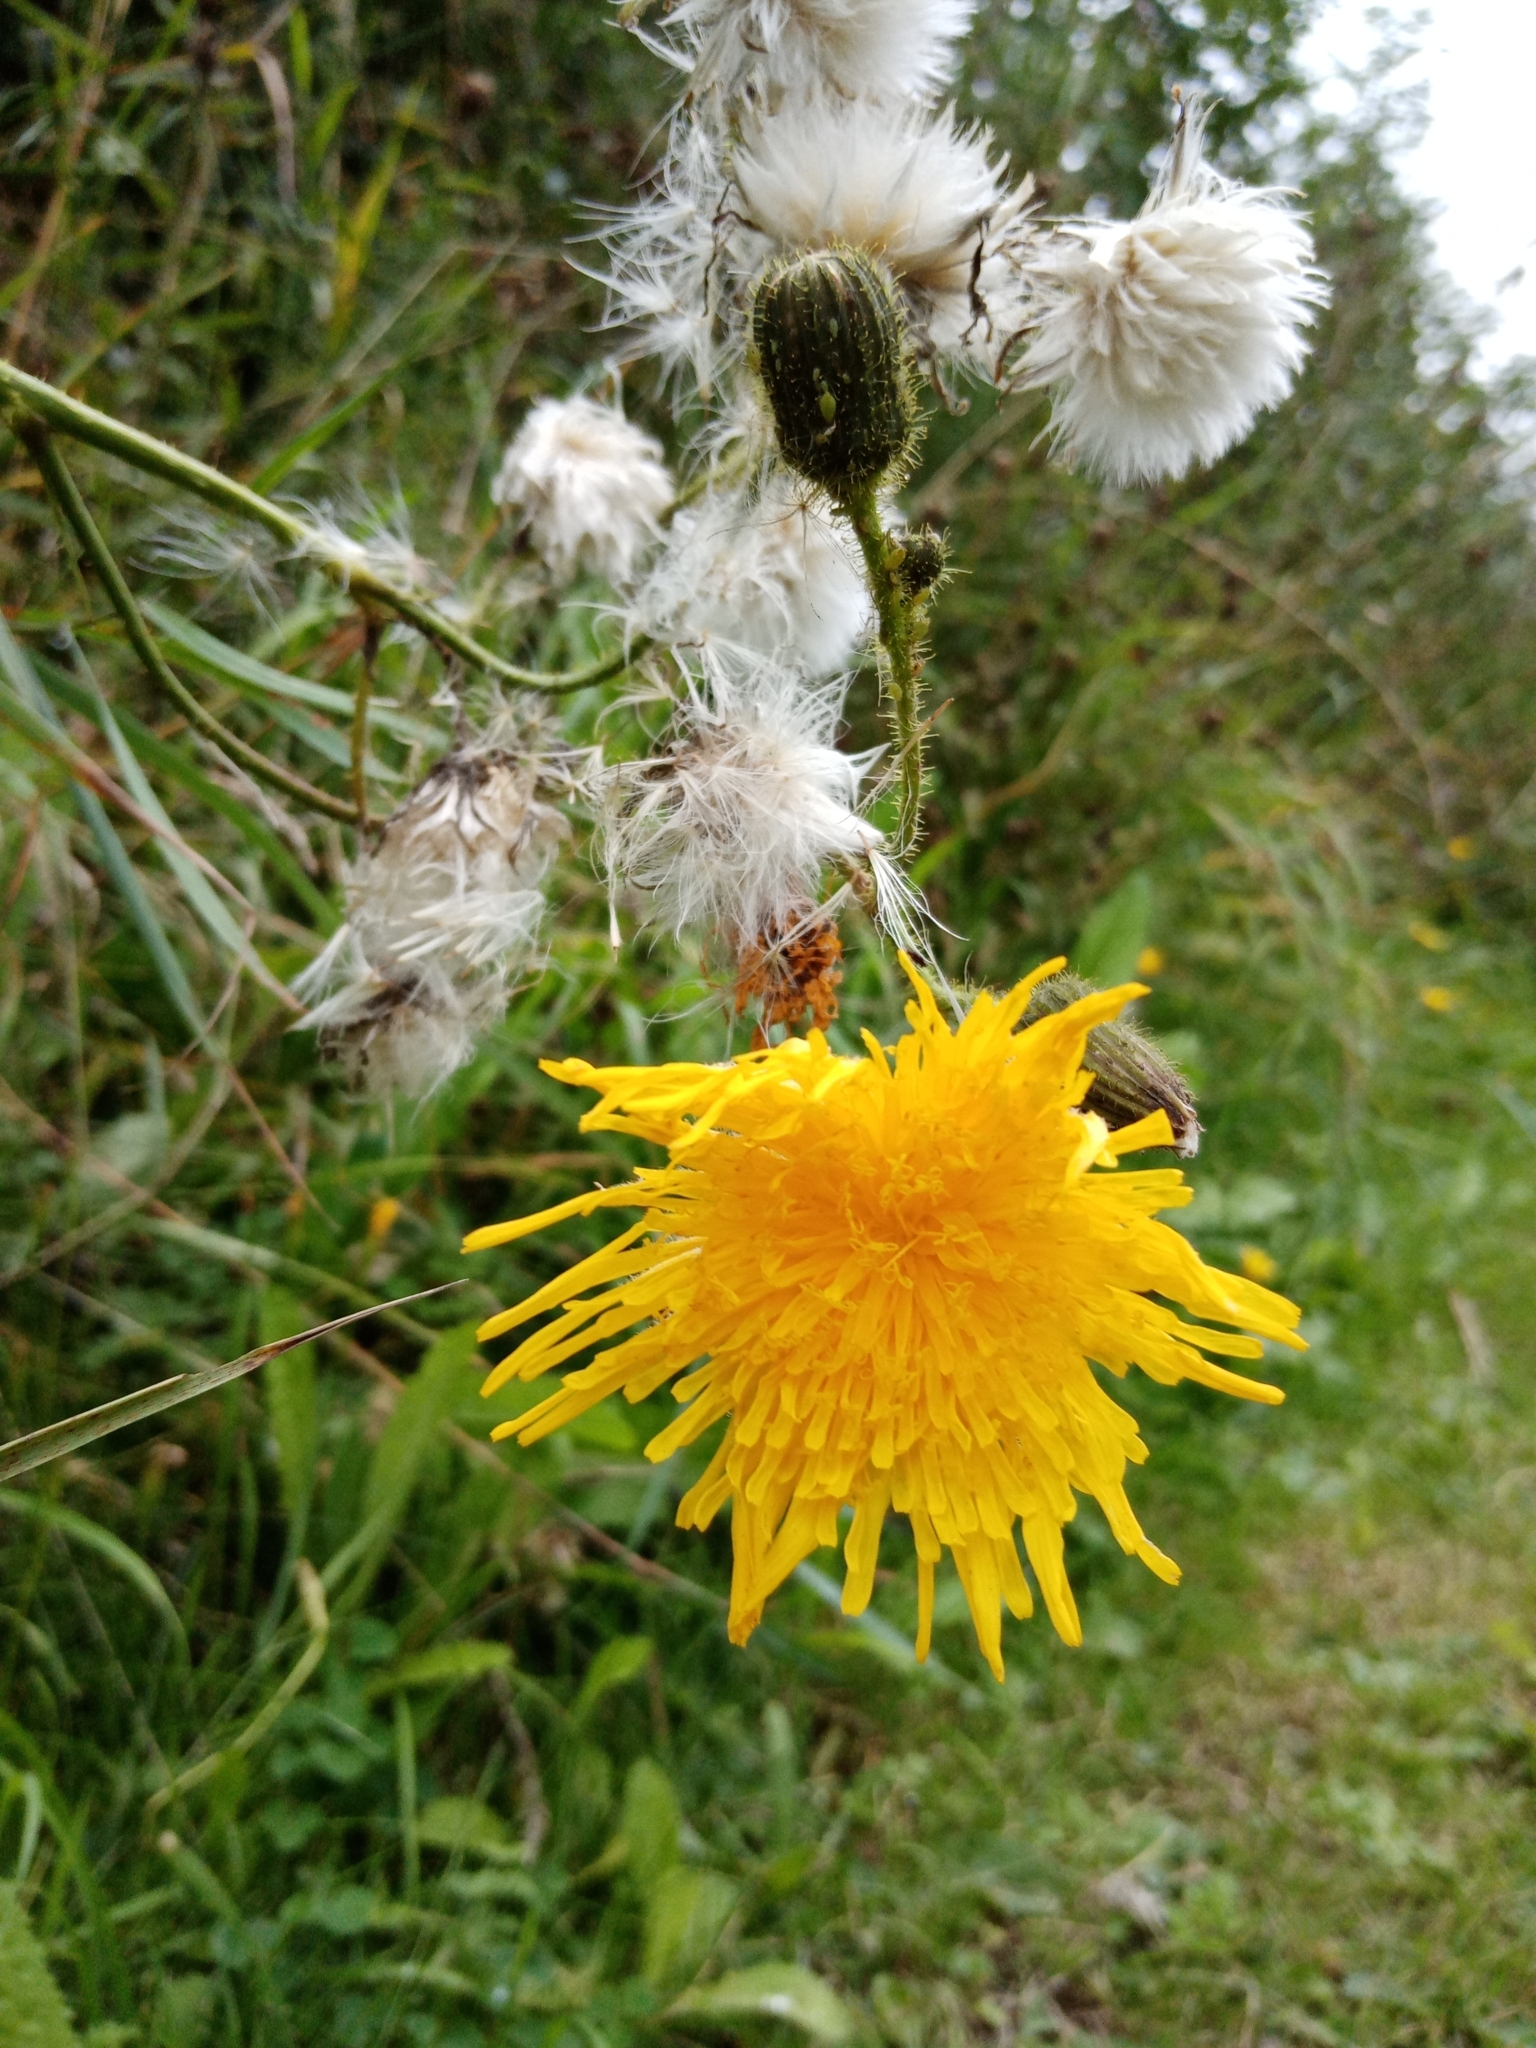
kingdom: Plantae
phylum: Tracheophyta
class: Magnoliopsida
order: Asterales
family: Asteraceae
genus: Sonchus
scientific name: Sonchus arvensis
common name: Perennial sow-thistle
